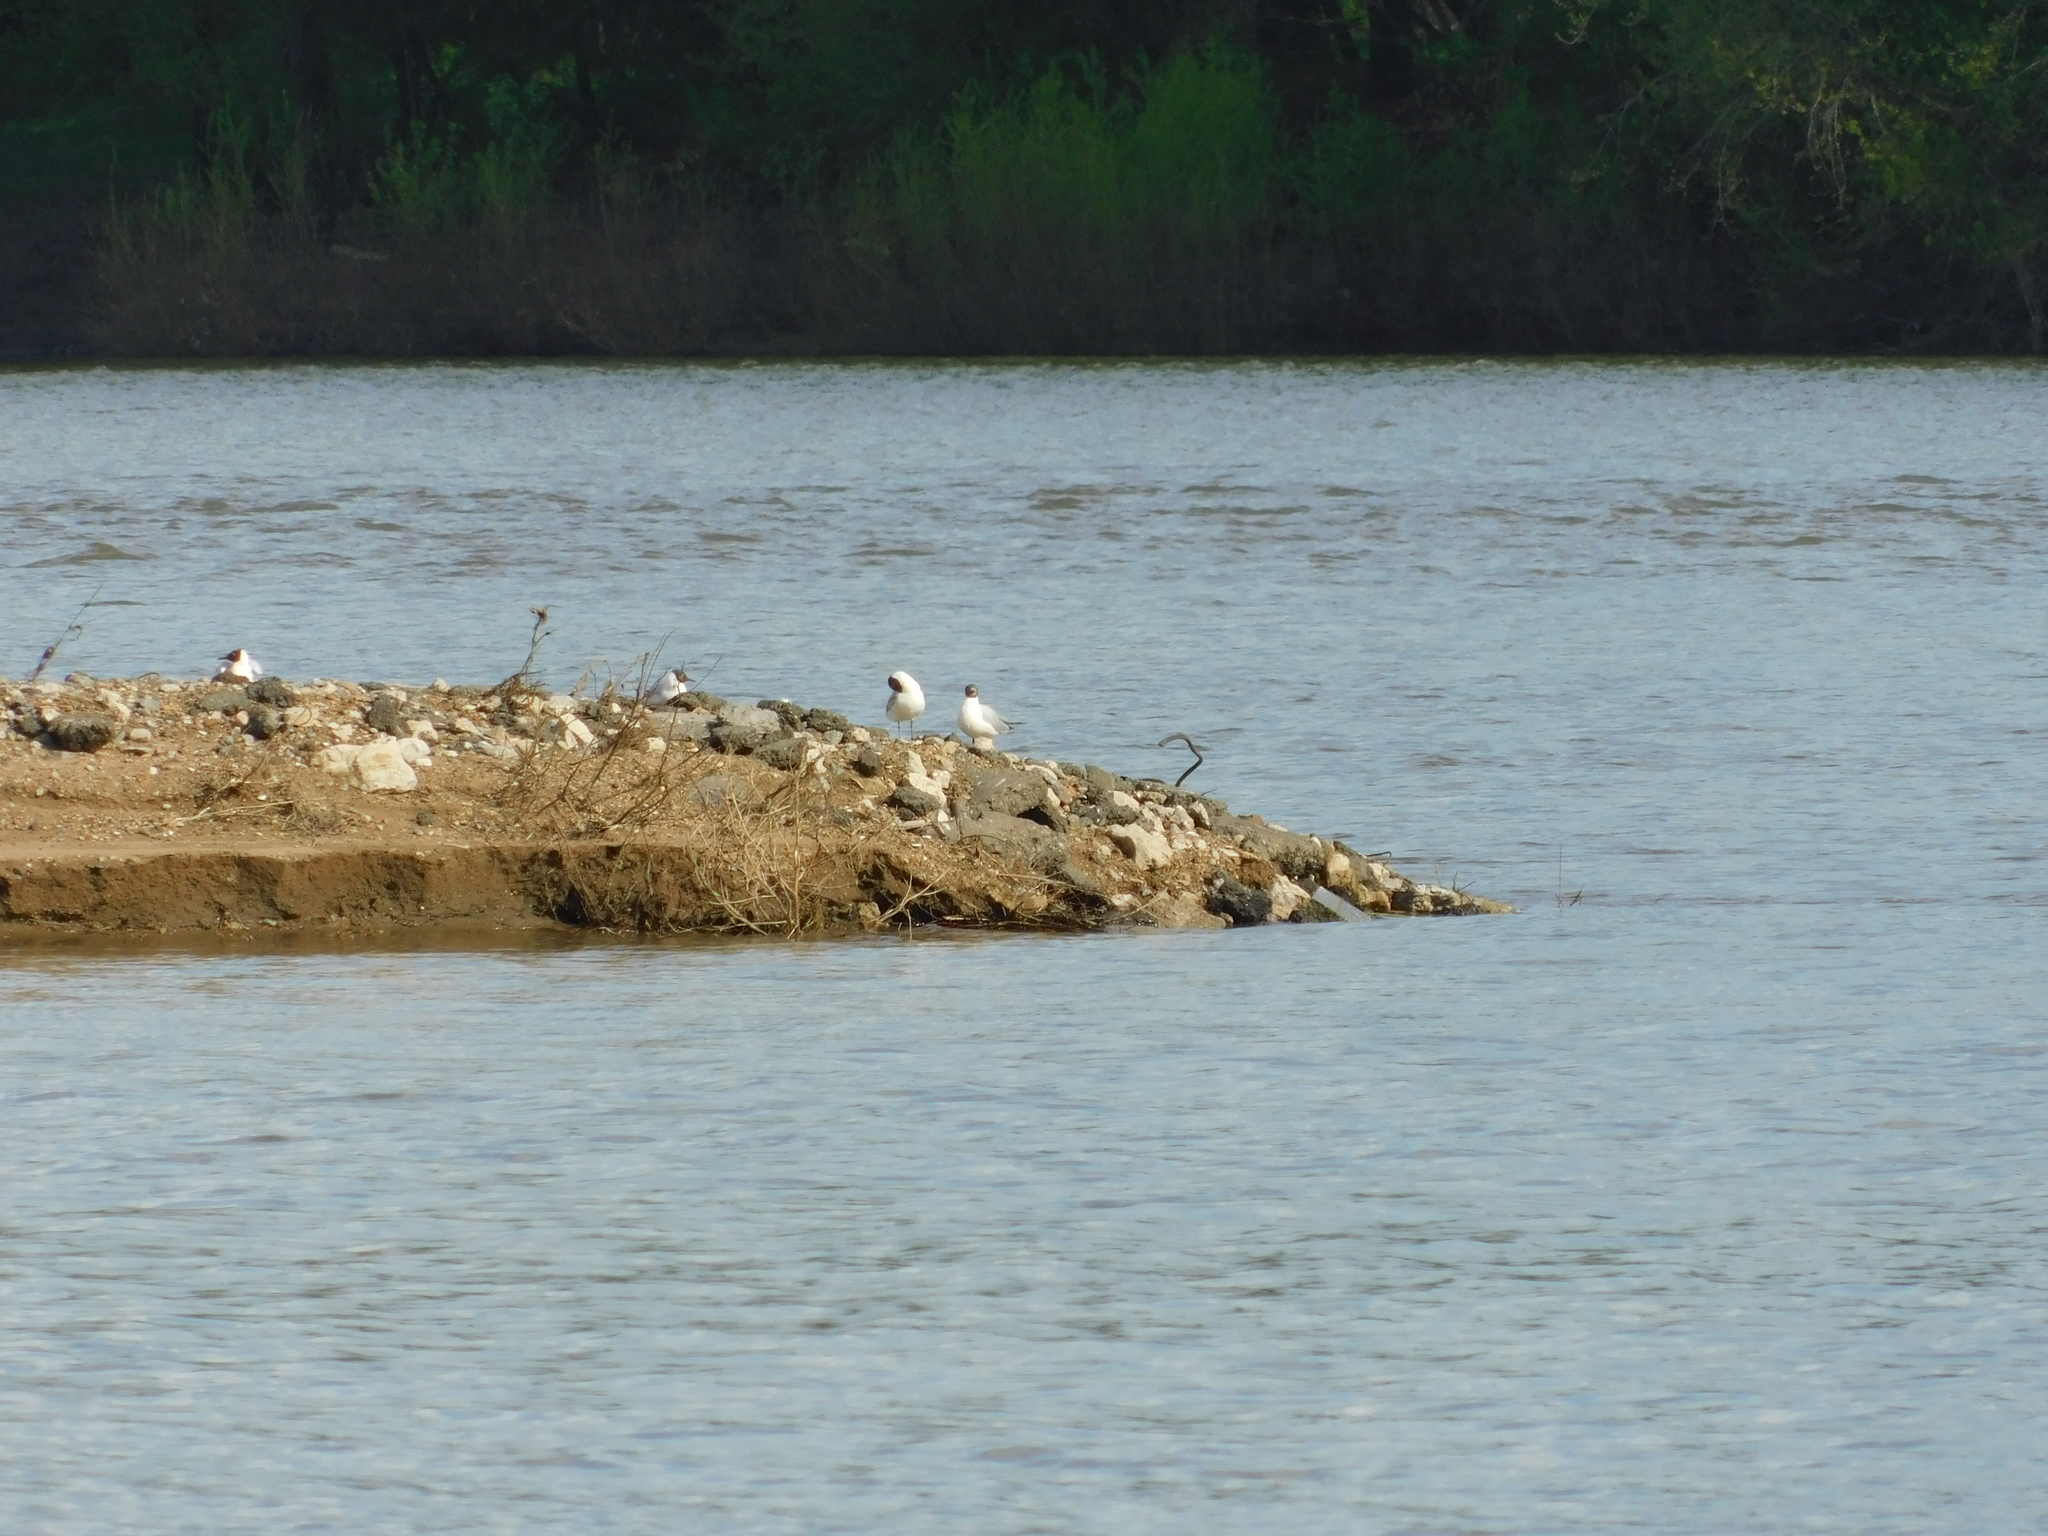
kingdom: Animalia
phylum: Chordata
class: Aves
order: Charadriiformes
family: Laridae
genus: Chroicocephalus
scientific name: Chroicocephalus ridibundus
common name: Black-headed gull
